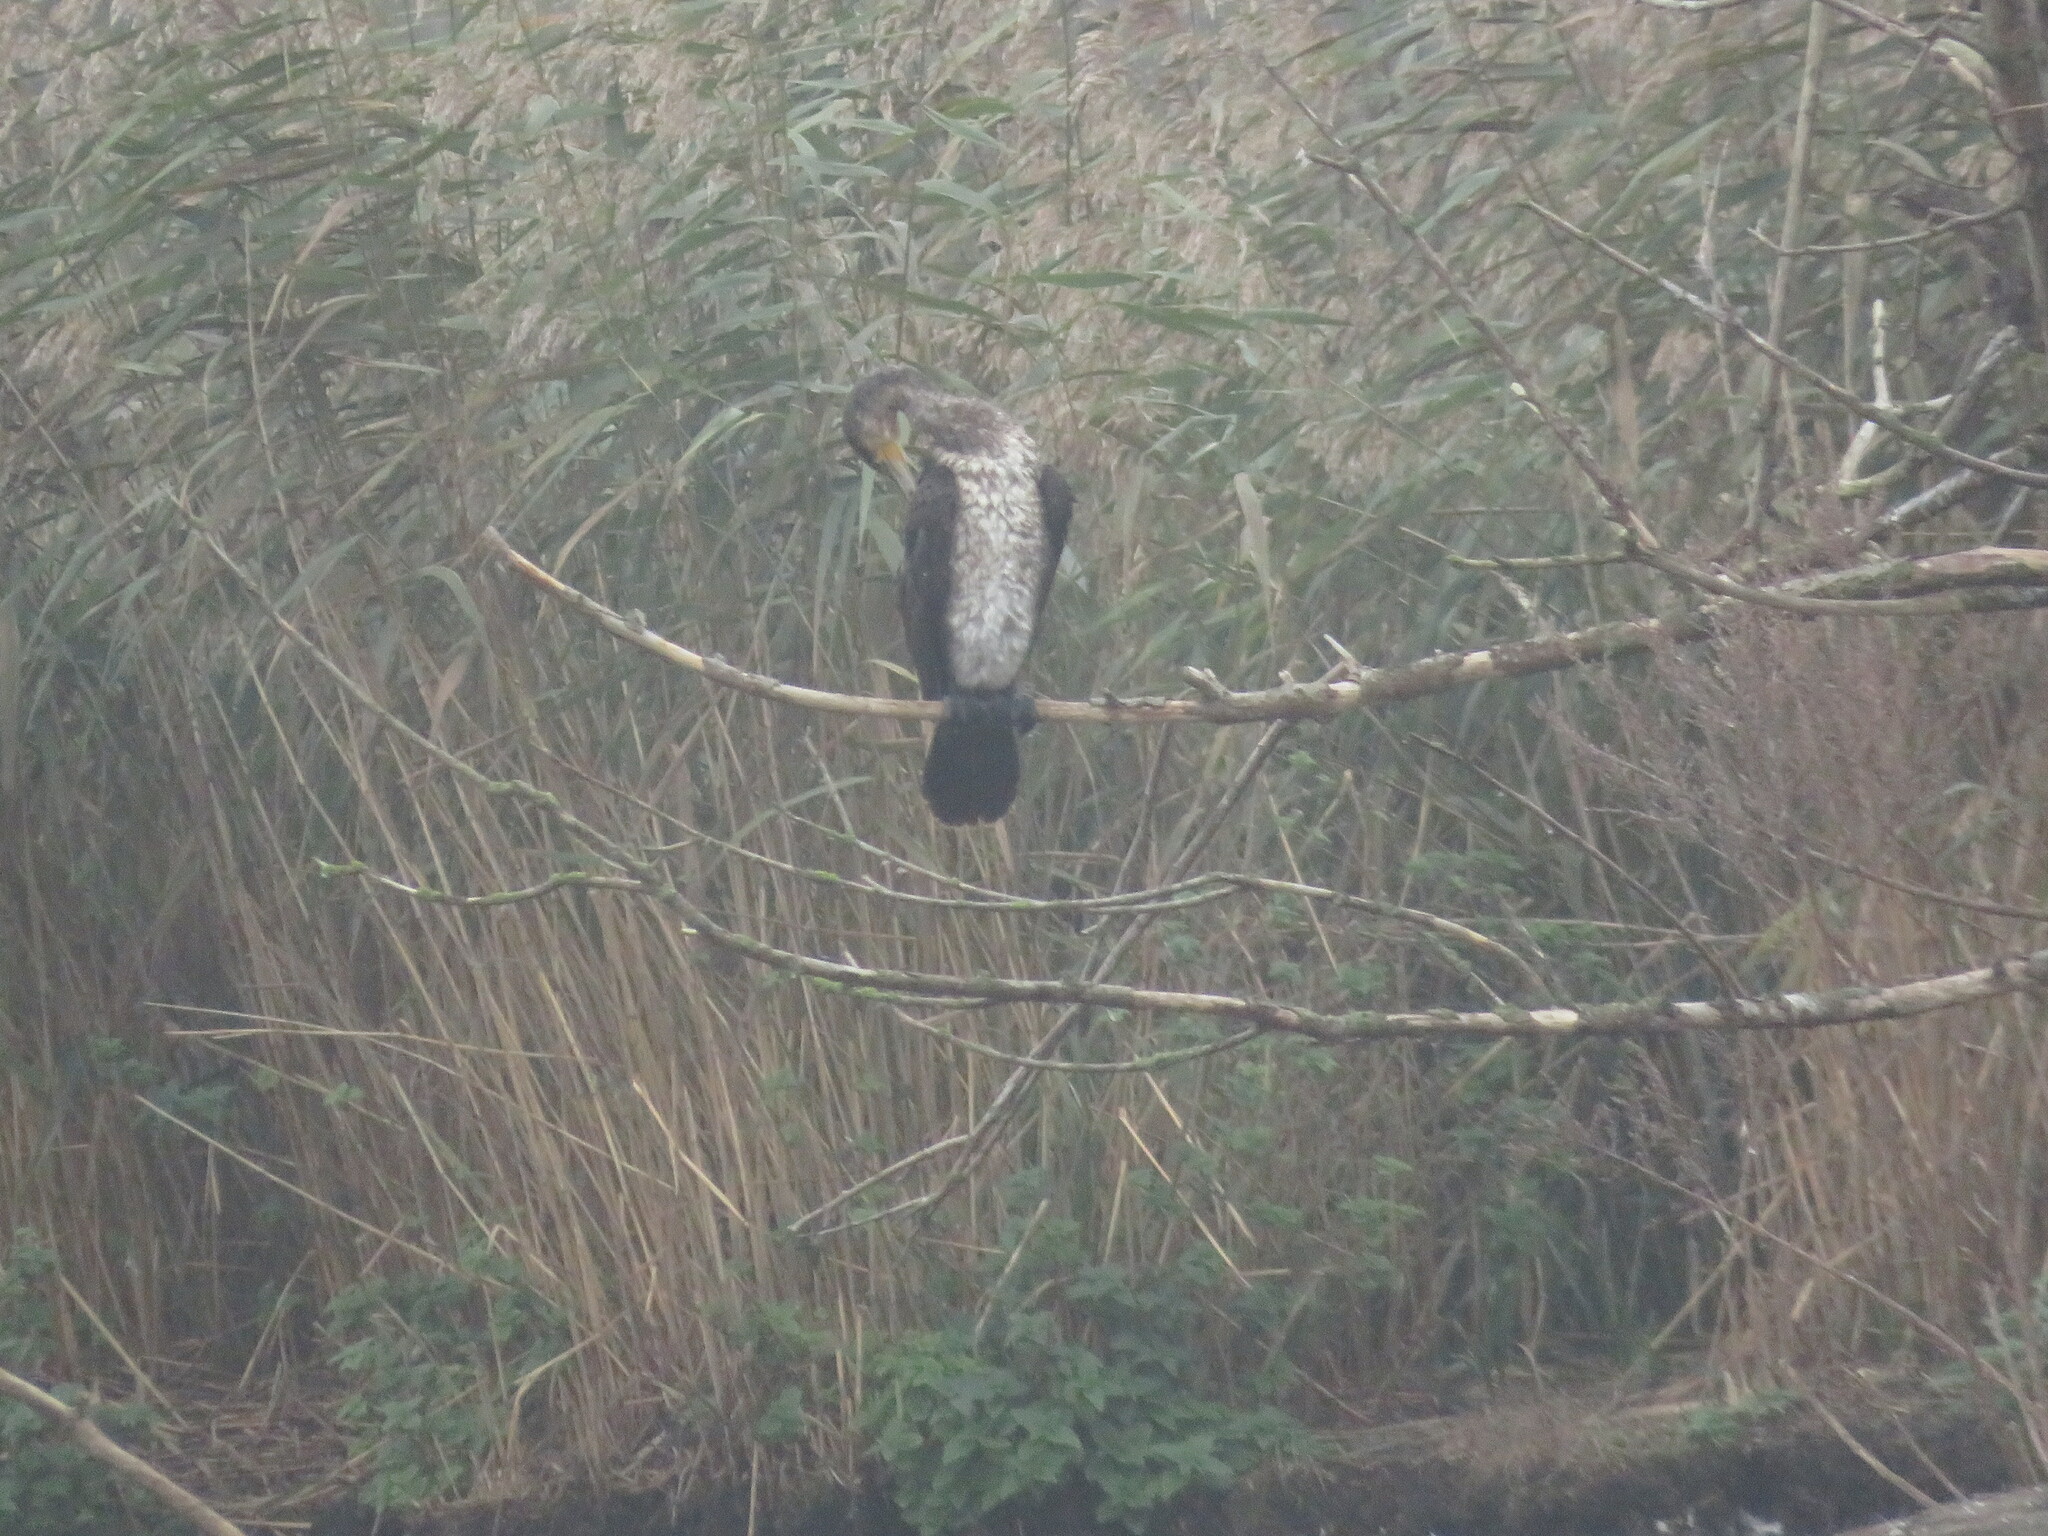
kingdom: Animalia
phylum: Chordata
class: Aves
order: Suliformes
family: Phalacrocoracidae
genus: Phalacrocorax
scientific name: Phalacrocorax carbo
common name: Great cormorant
